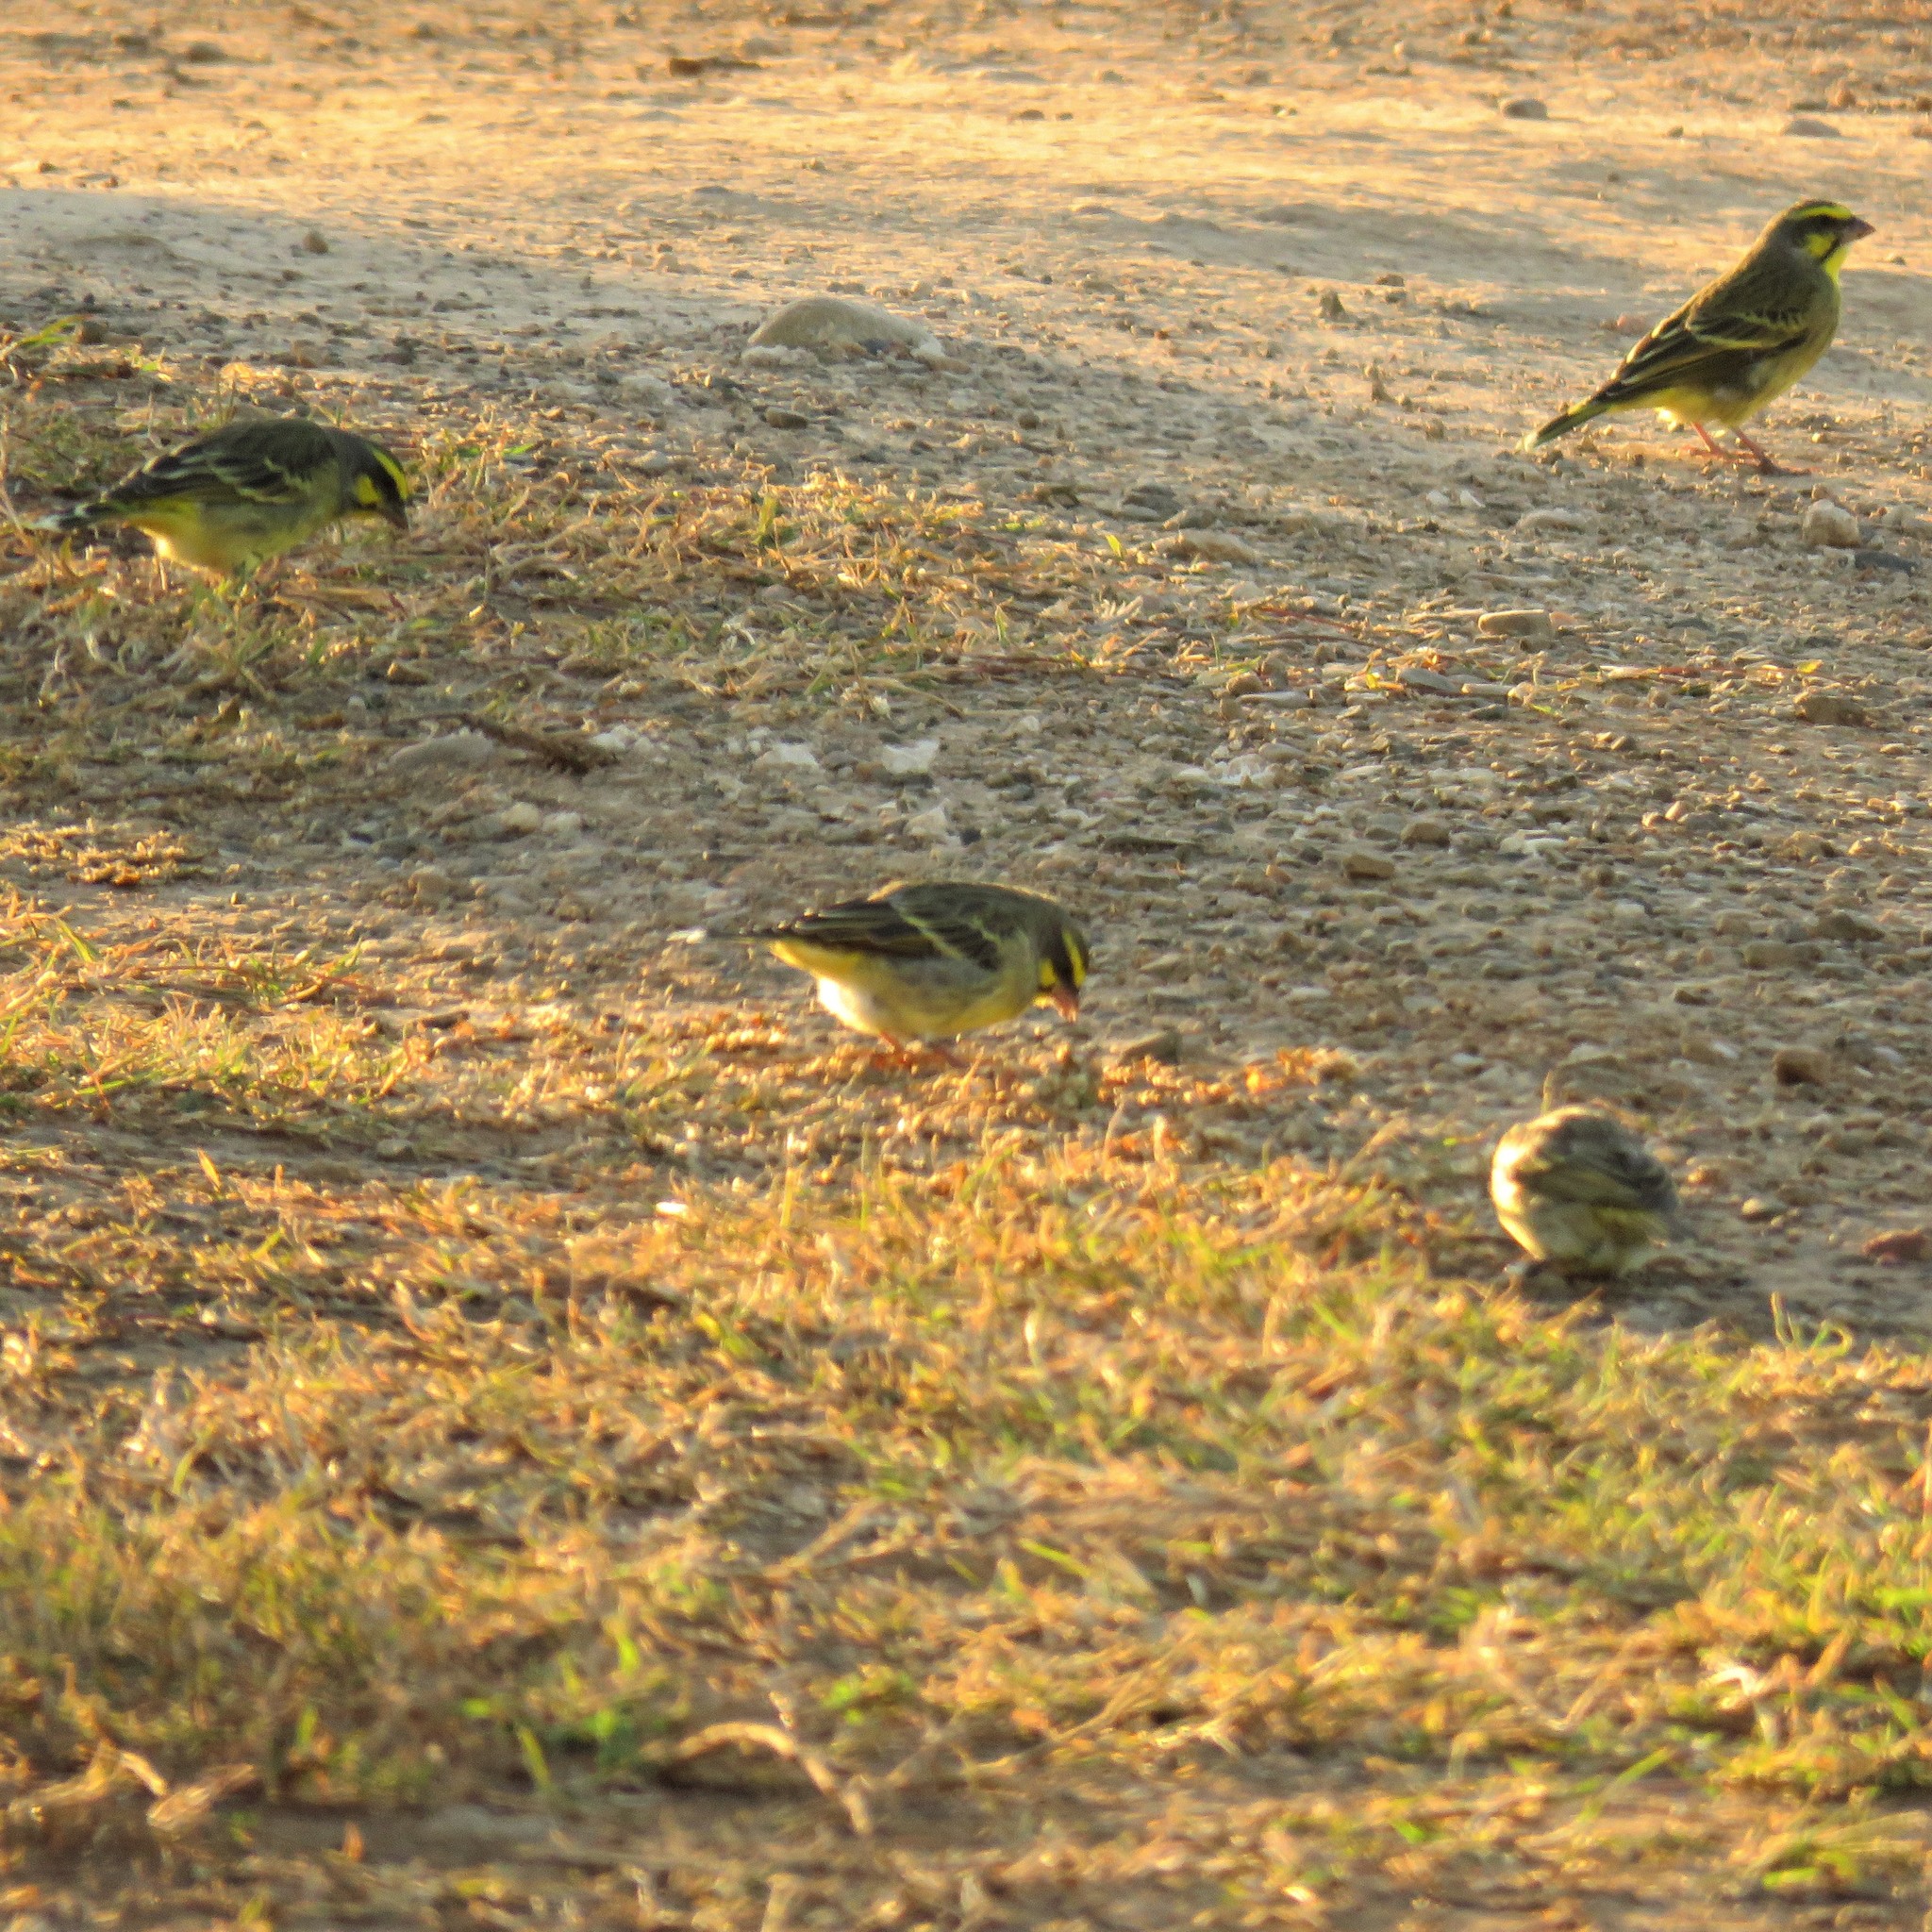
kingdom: Animalia
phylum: Chordata
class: Aves
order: Passeriformes
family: Fringillidae
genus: Crithagra
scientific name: Crithagra mozambica
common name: Yellow-fronted canary
